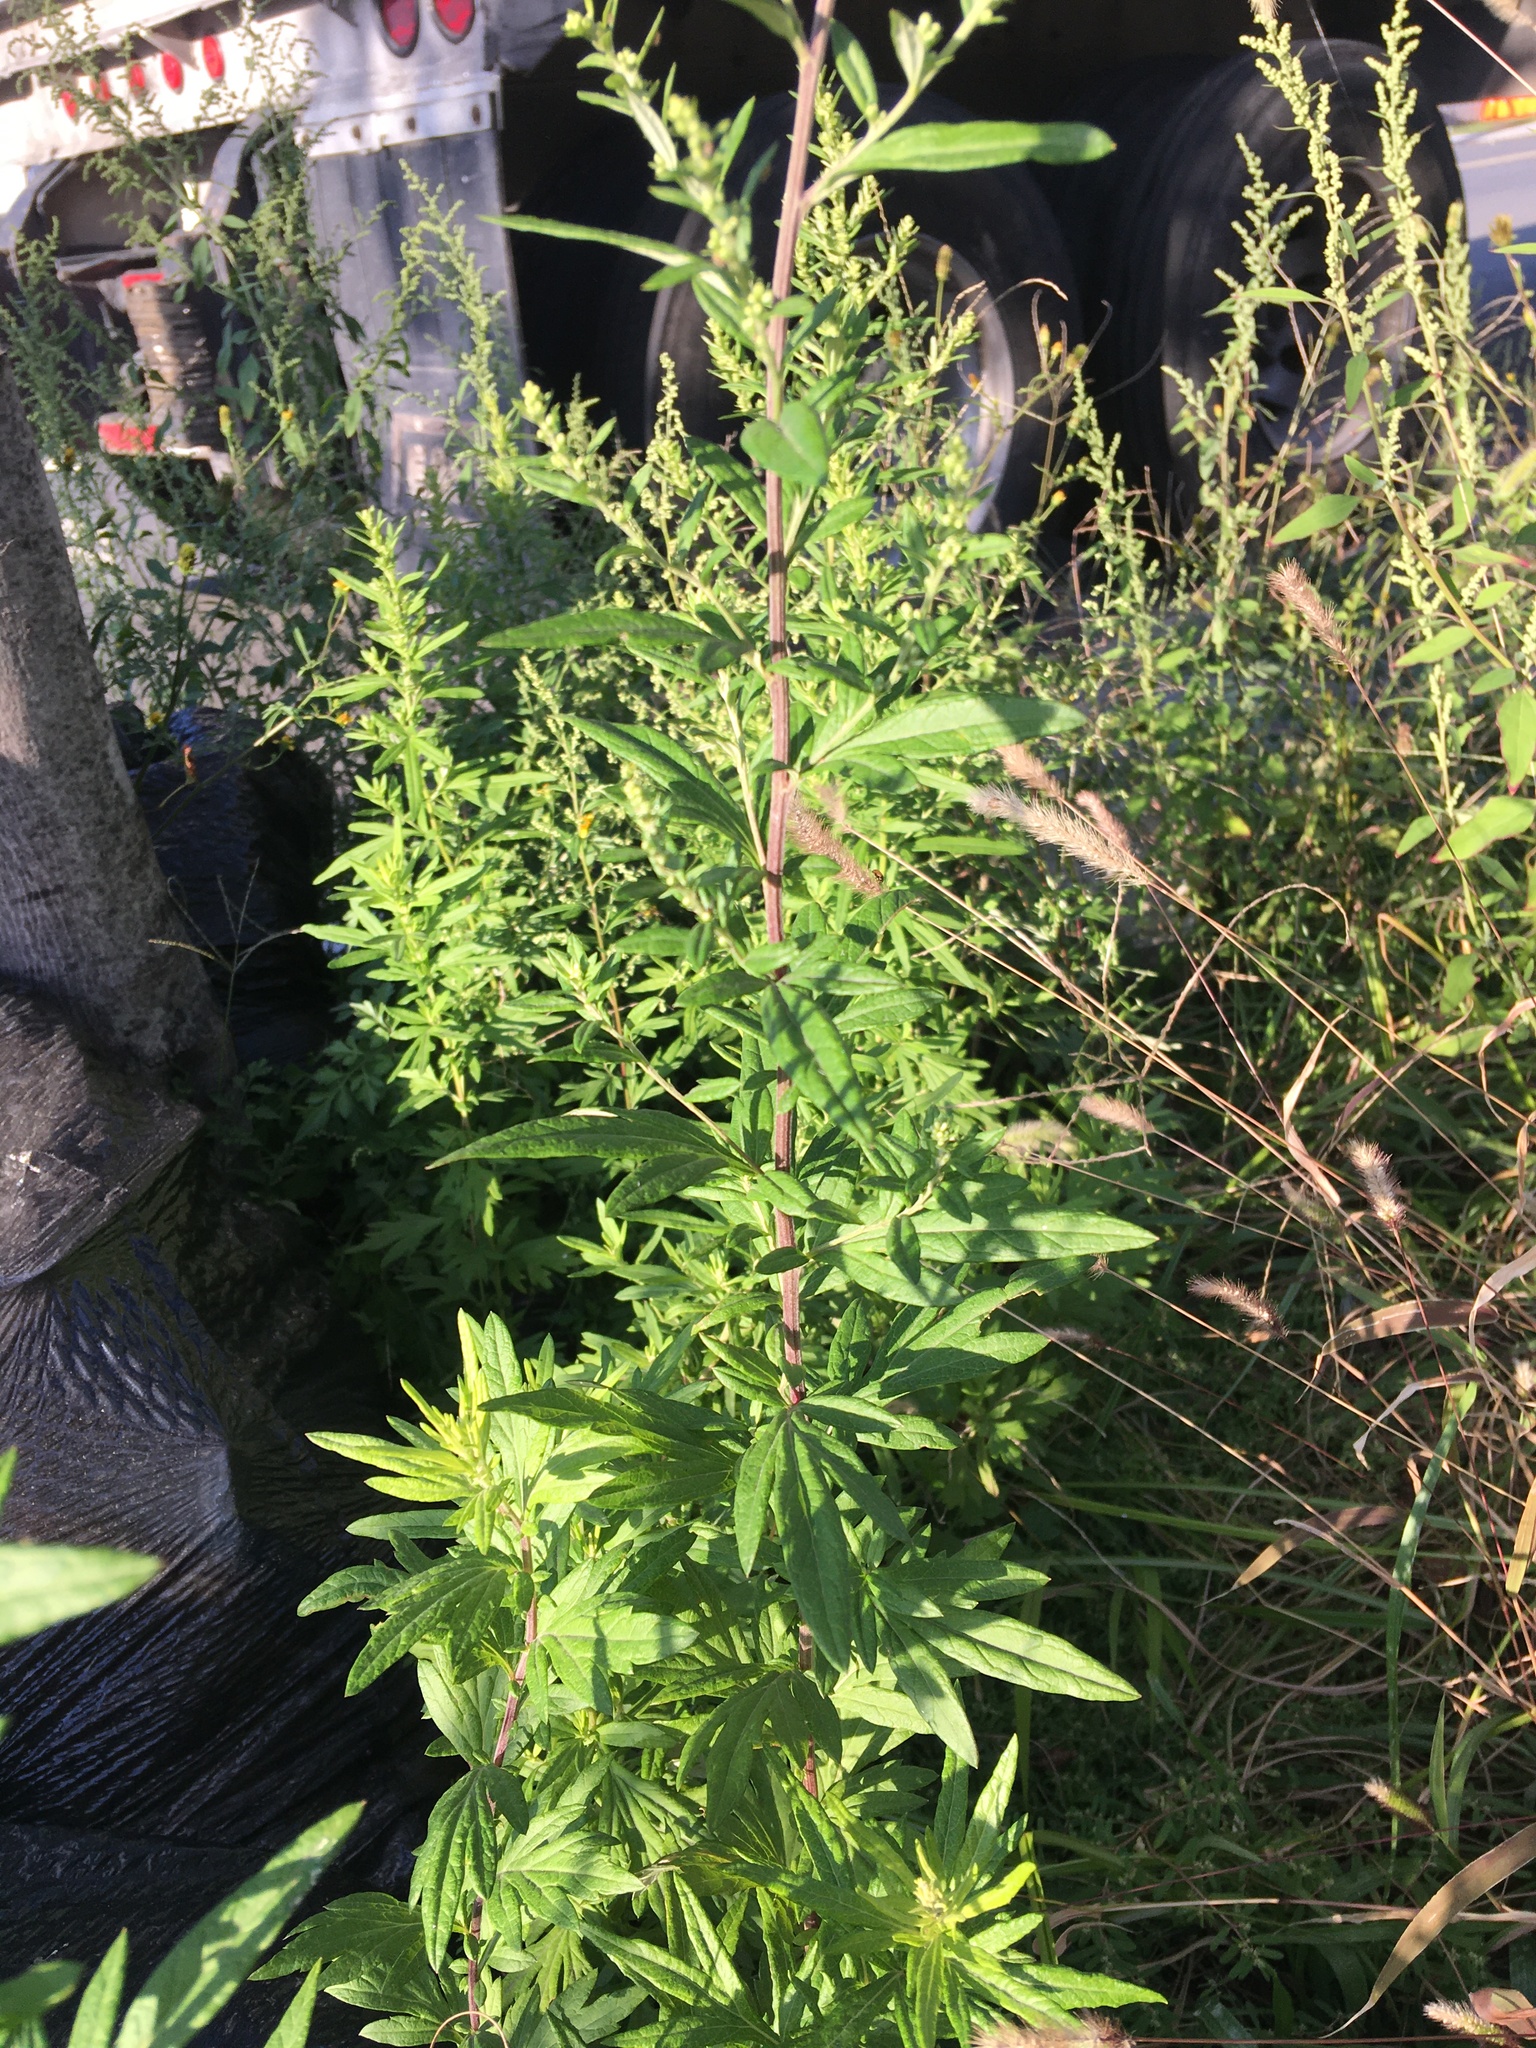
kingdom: Plantae
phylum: Tracheophyta
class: Magnoliopsida
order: Asterales
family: Asteraceae
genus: Artemisia
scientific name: Artemisia vulgaris
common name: Mugwort
